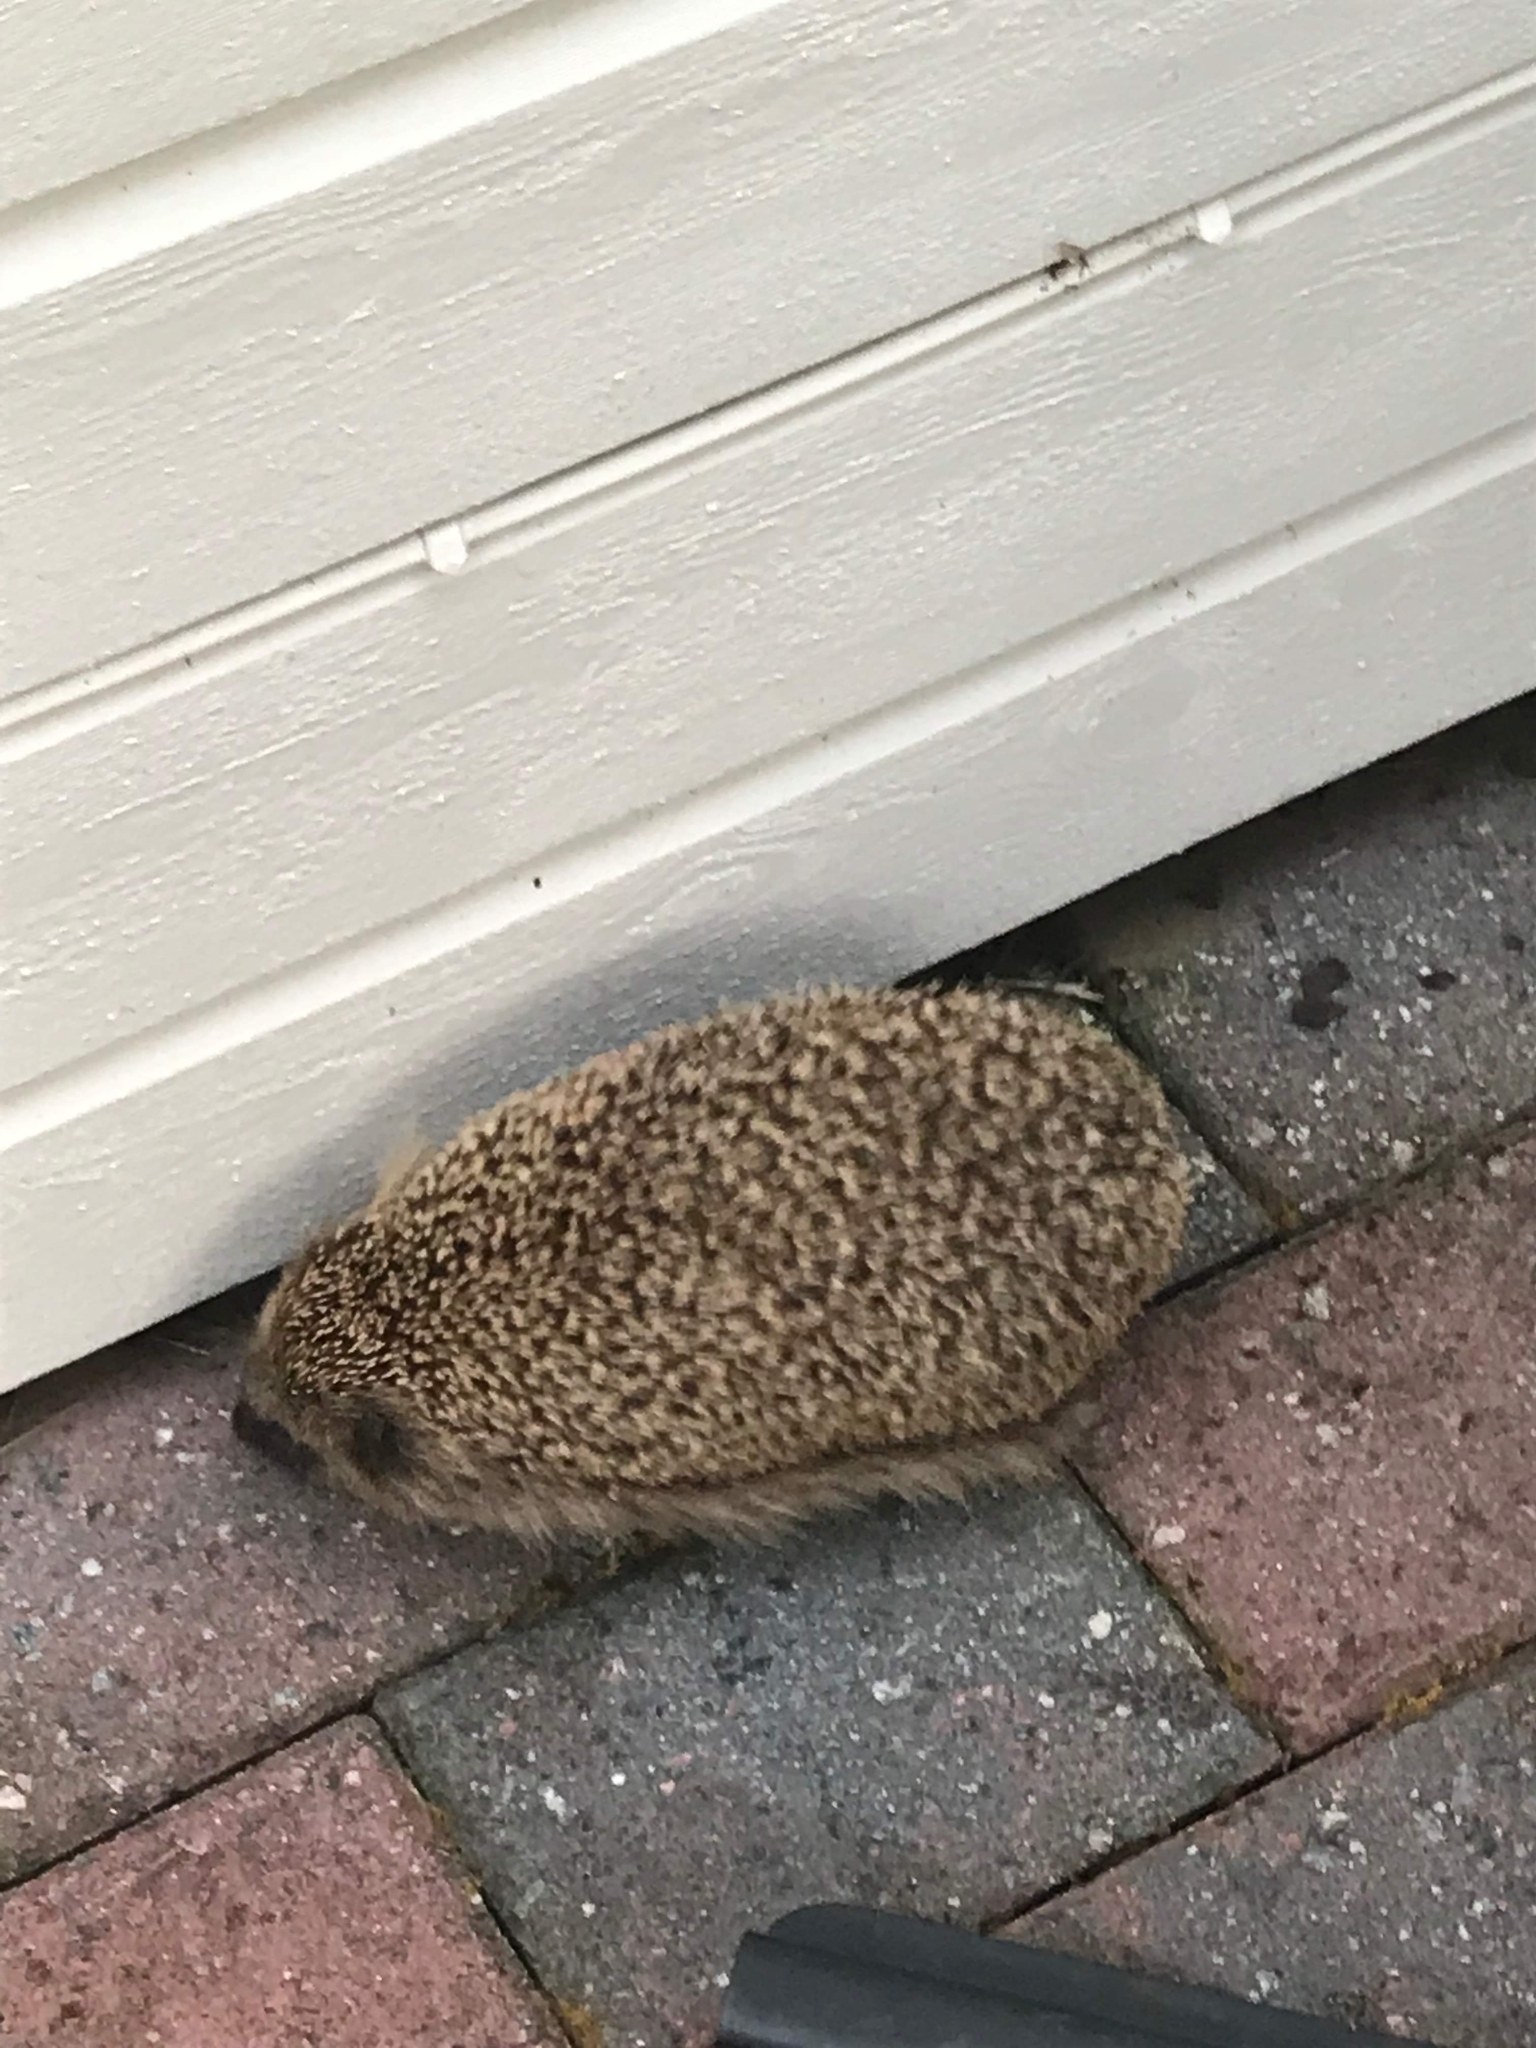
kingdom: Animalia
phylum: Chordata
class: Mammalia
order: Erinaceomorpha
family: Erinaceidae
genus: Erinaceus
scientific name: Erinaceus europaeus
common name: West european hedgehog
